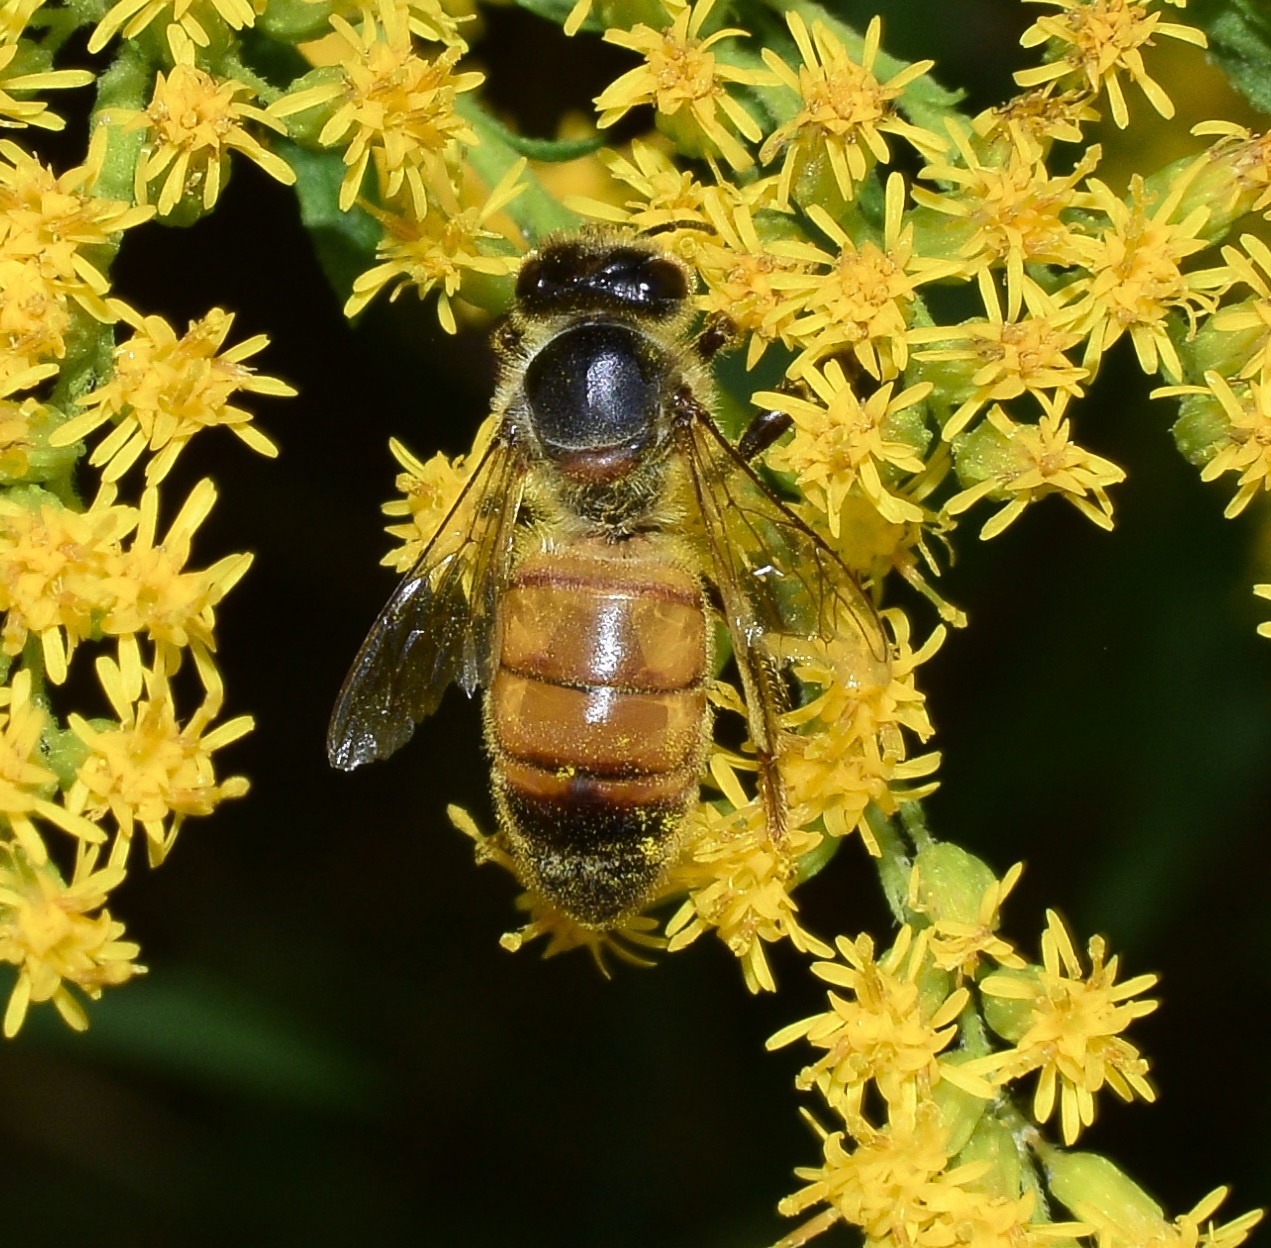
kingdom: Animalia
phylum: Arthropoda
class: Insecta
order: Hymenoptera
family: Apidae
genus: Apis
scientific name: Apis mellifera
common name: Honey bee
